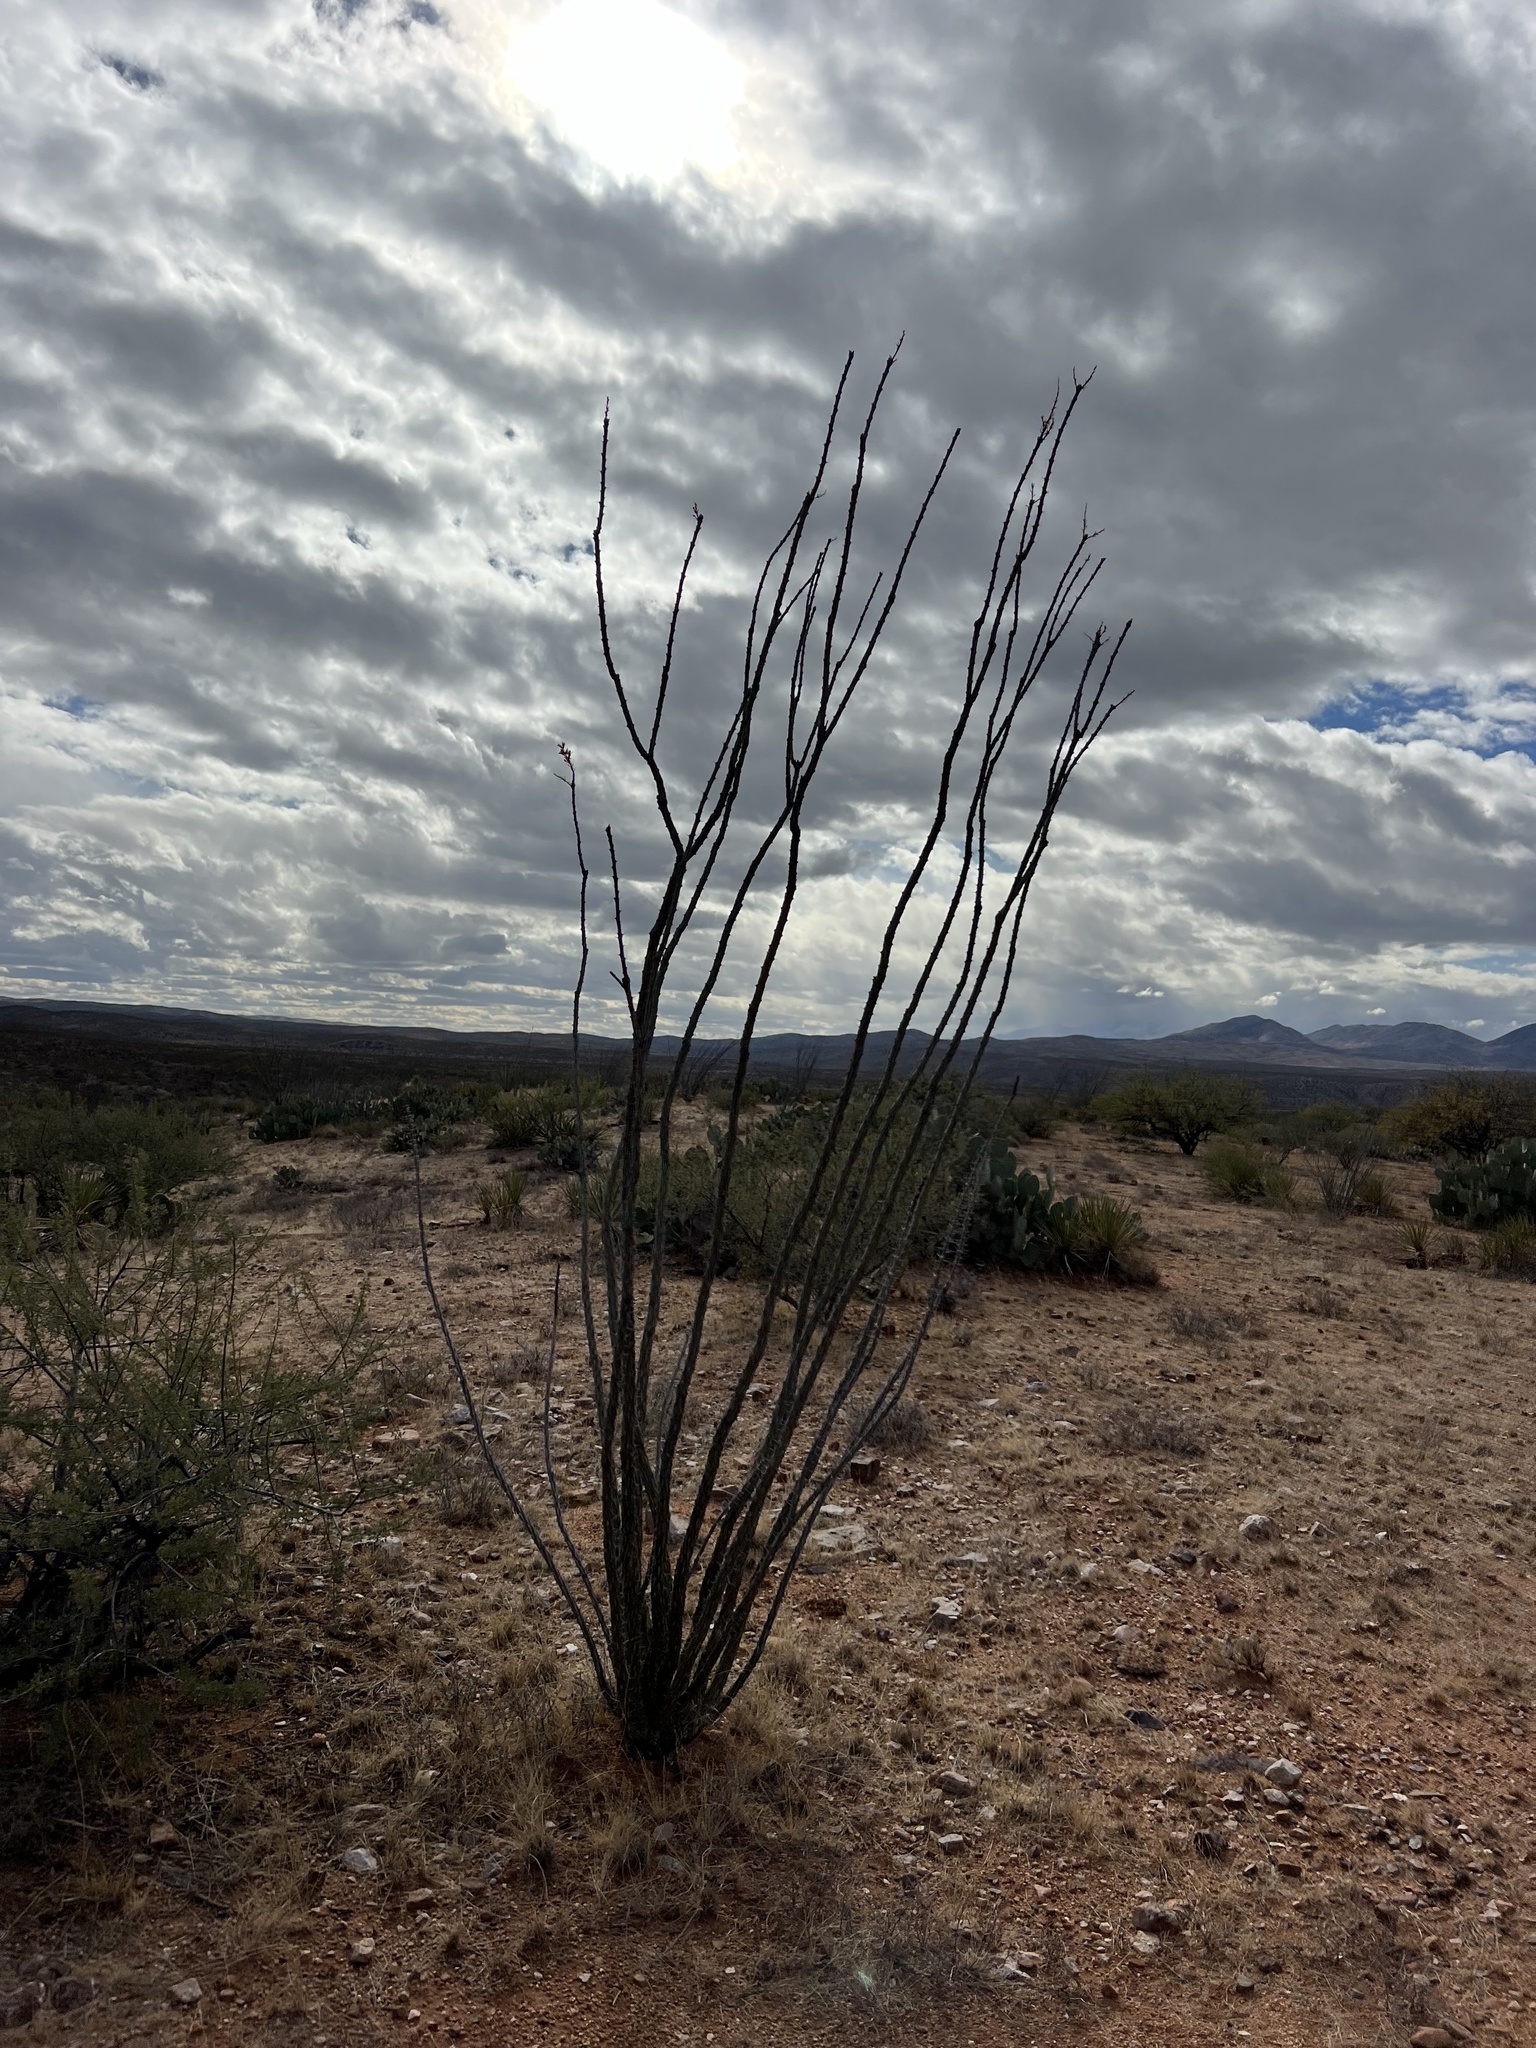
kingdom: Plantae
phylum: Tracheophyta
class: Magnoliopsida
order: Ericales
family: Fouquieriaceae
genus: Fouquieria
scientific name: Fouquieria splendens
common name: Vine-cactus
